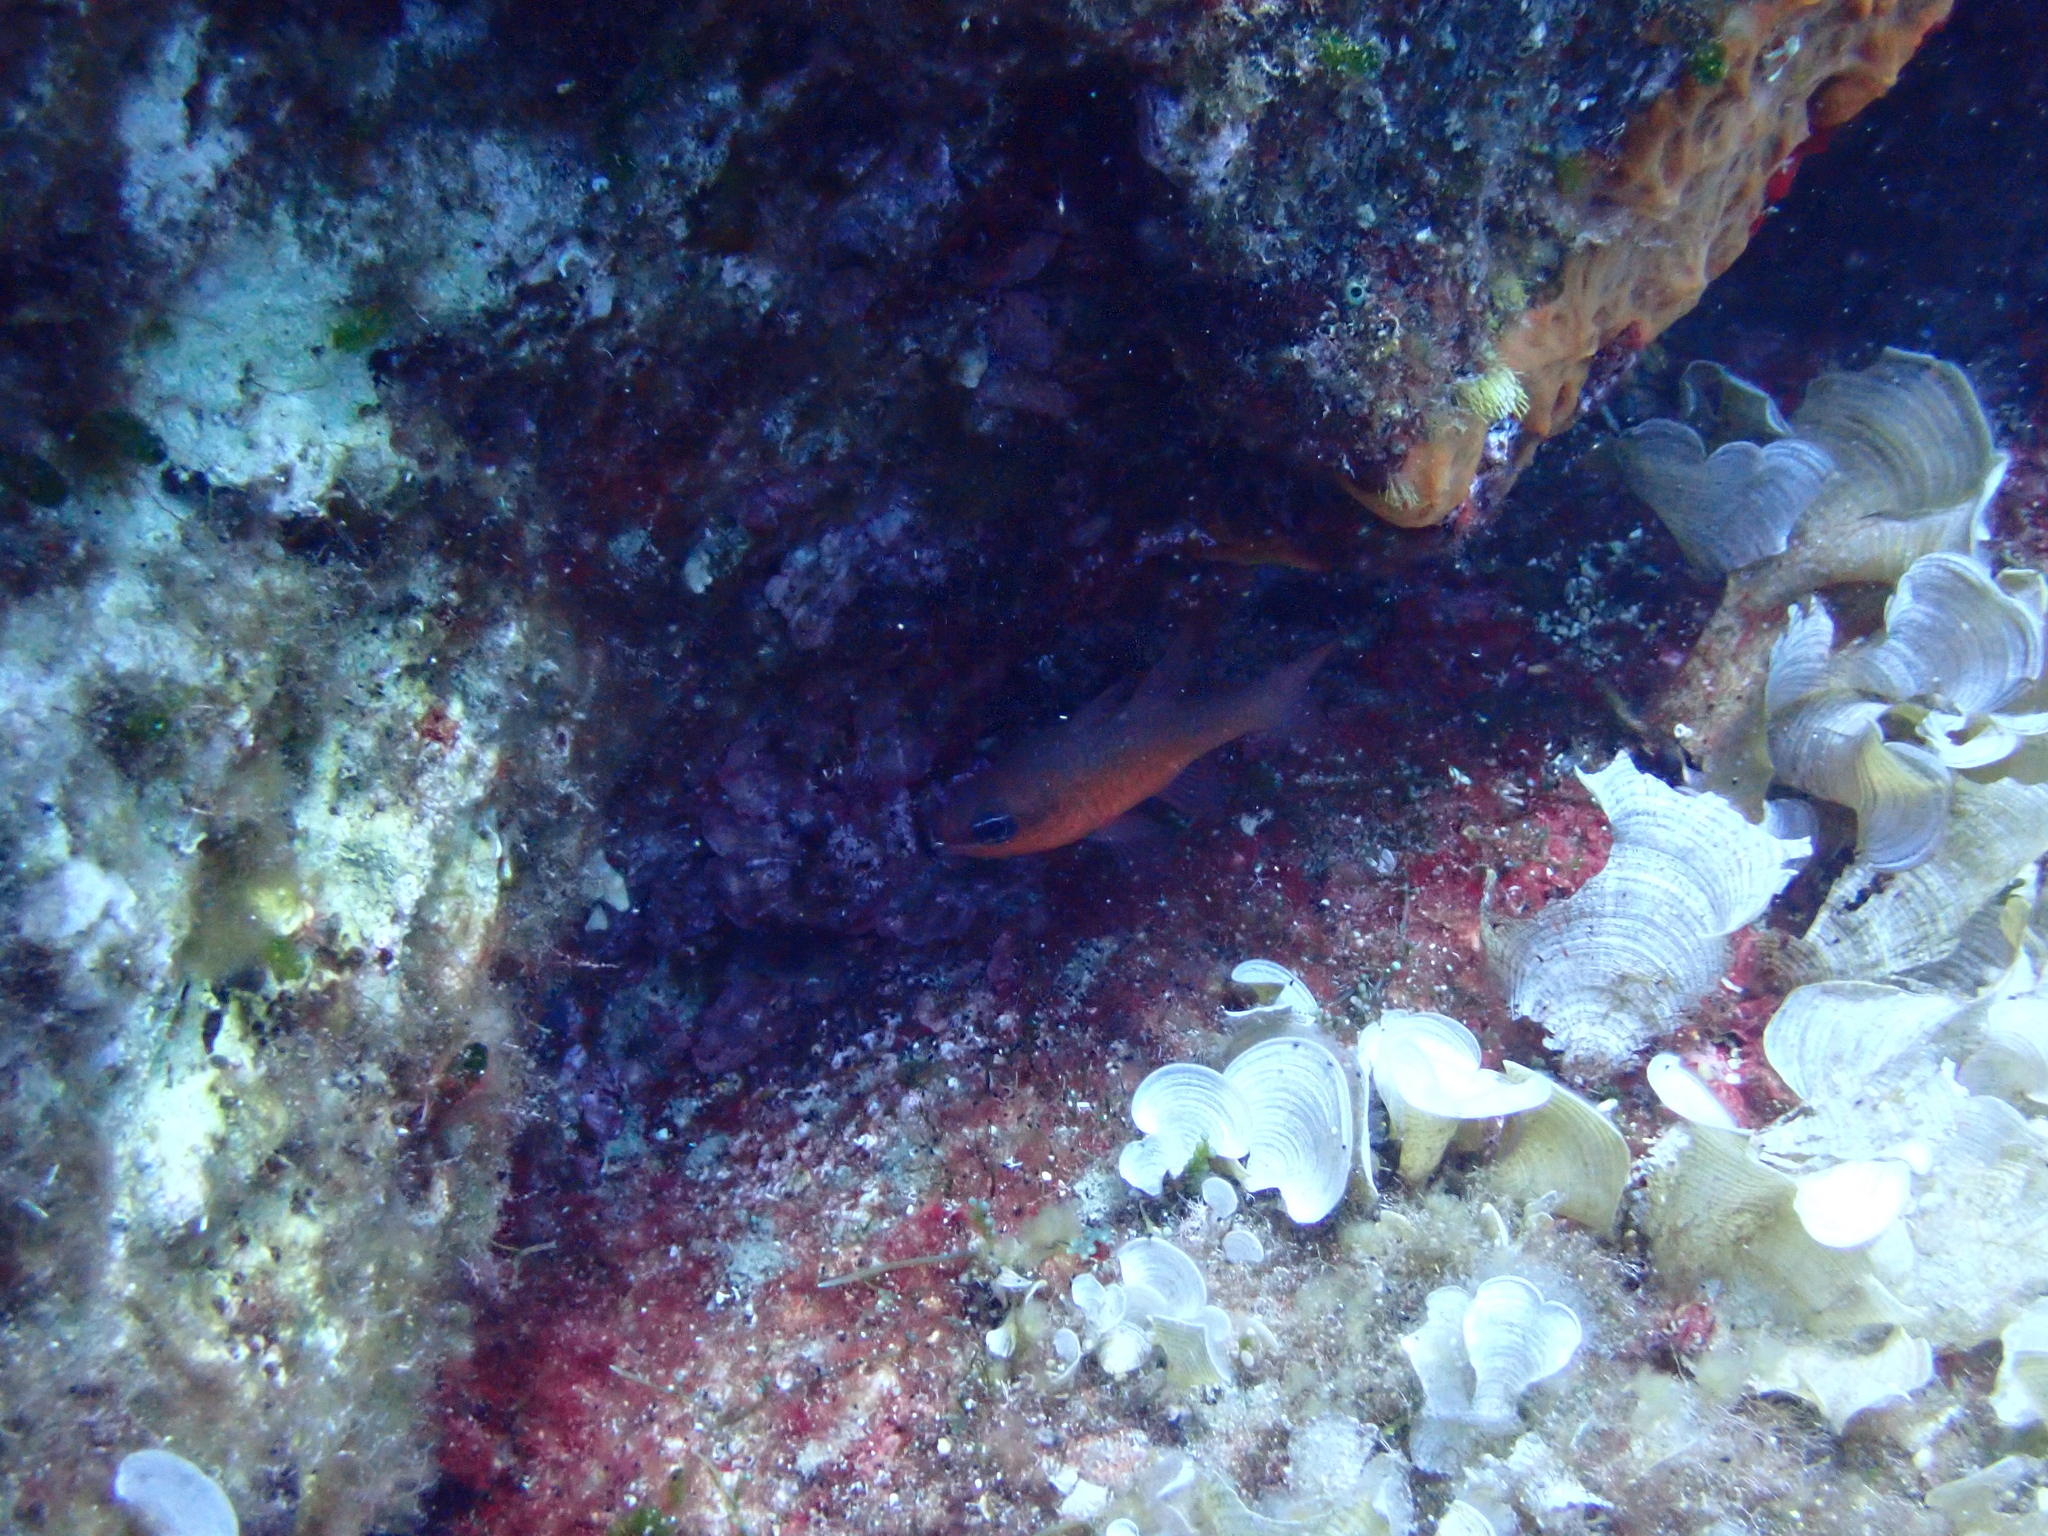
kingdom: Animalia
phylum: Chordata
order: Perciformes
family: Apogonidae
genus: Apogon
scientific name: Apogon imberbis
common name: Cardinal fish
